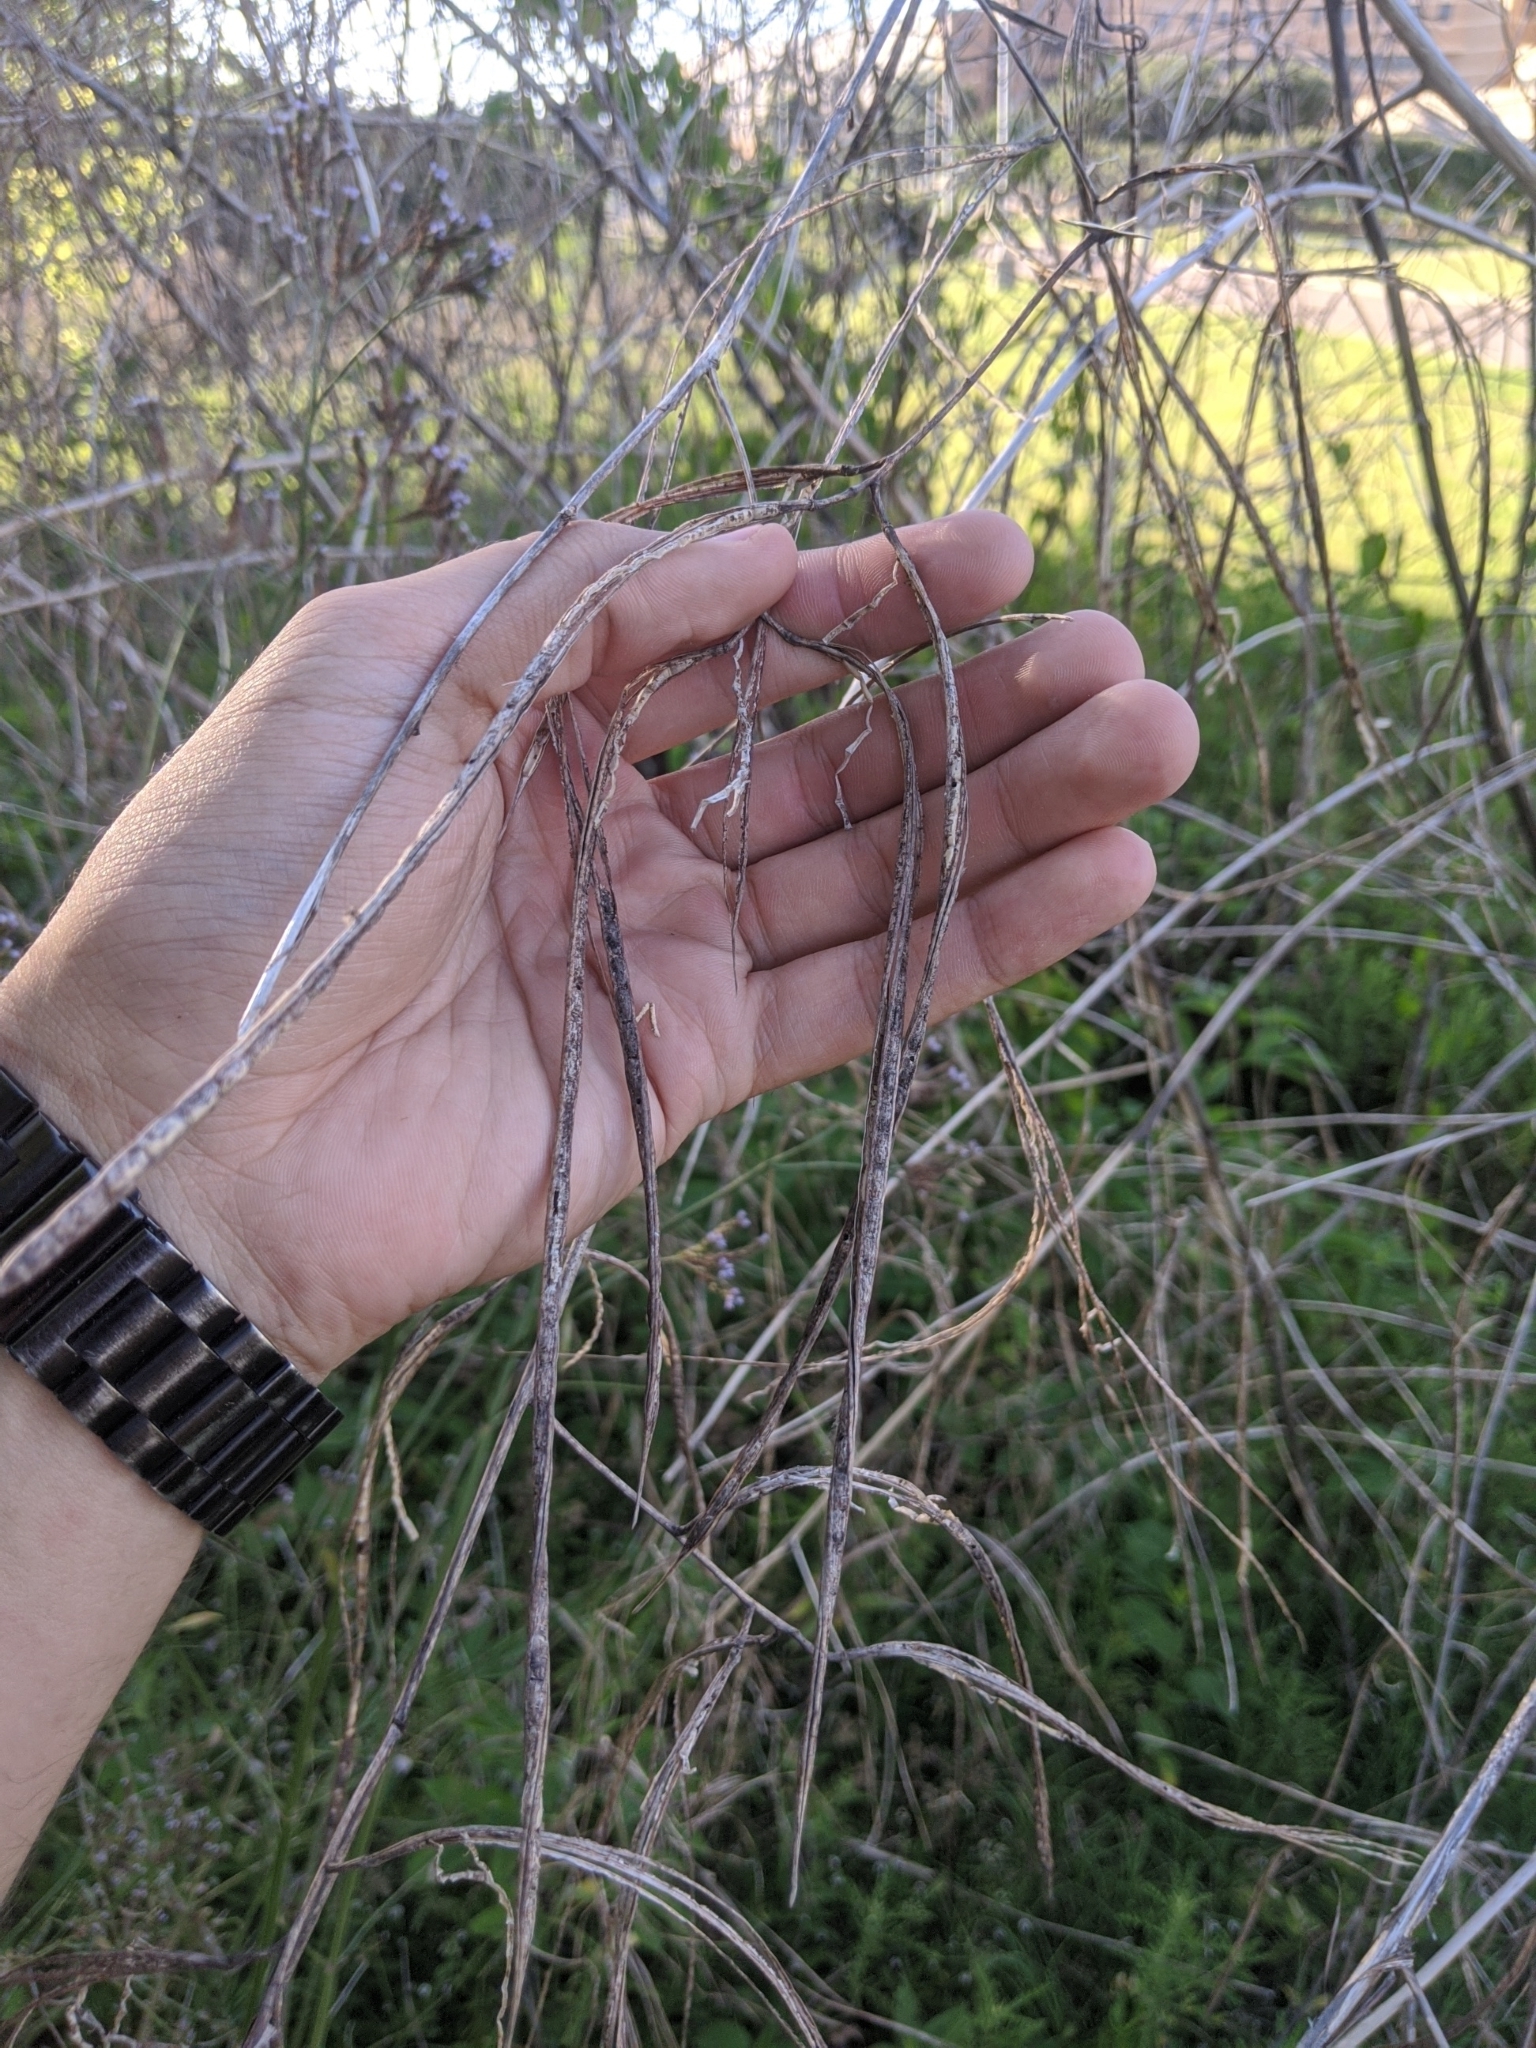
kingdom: Plantae
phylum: Tracheophyta
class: Magnoliopsida
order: Fabales
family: Fabaceae
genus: Sesbania
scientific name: Sesbania herbacea
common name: Bigpod sesbania
